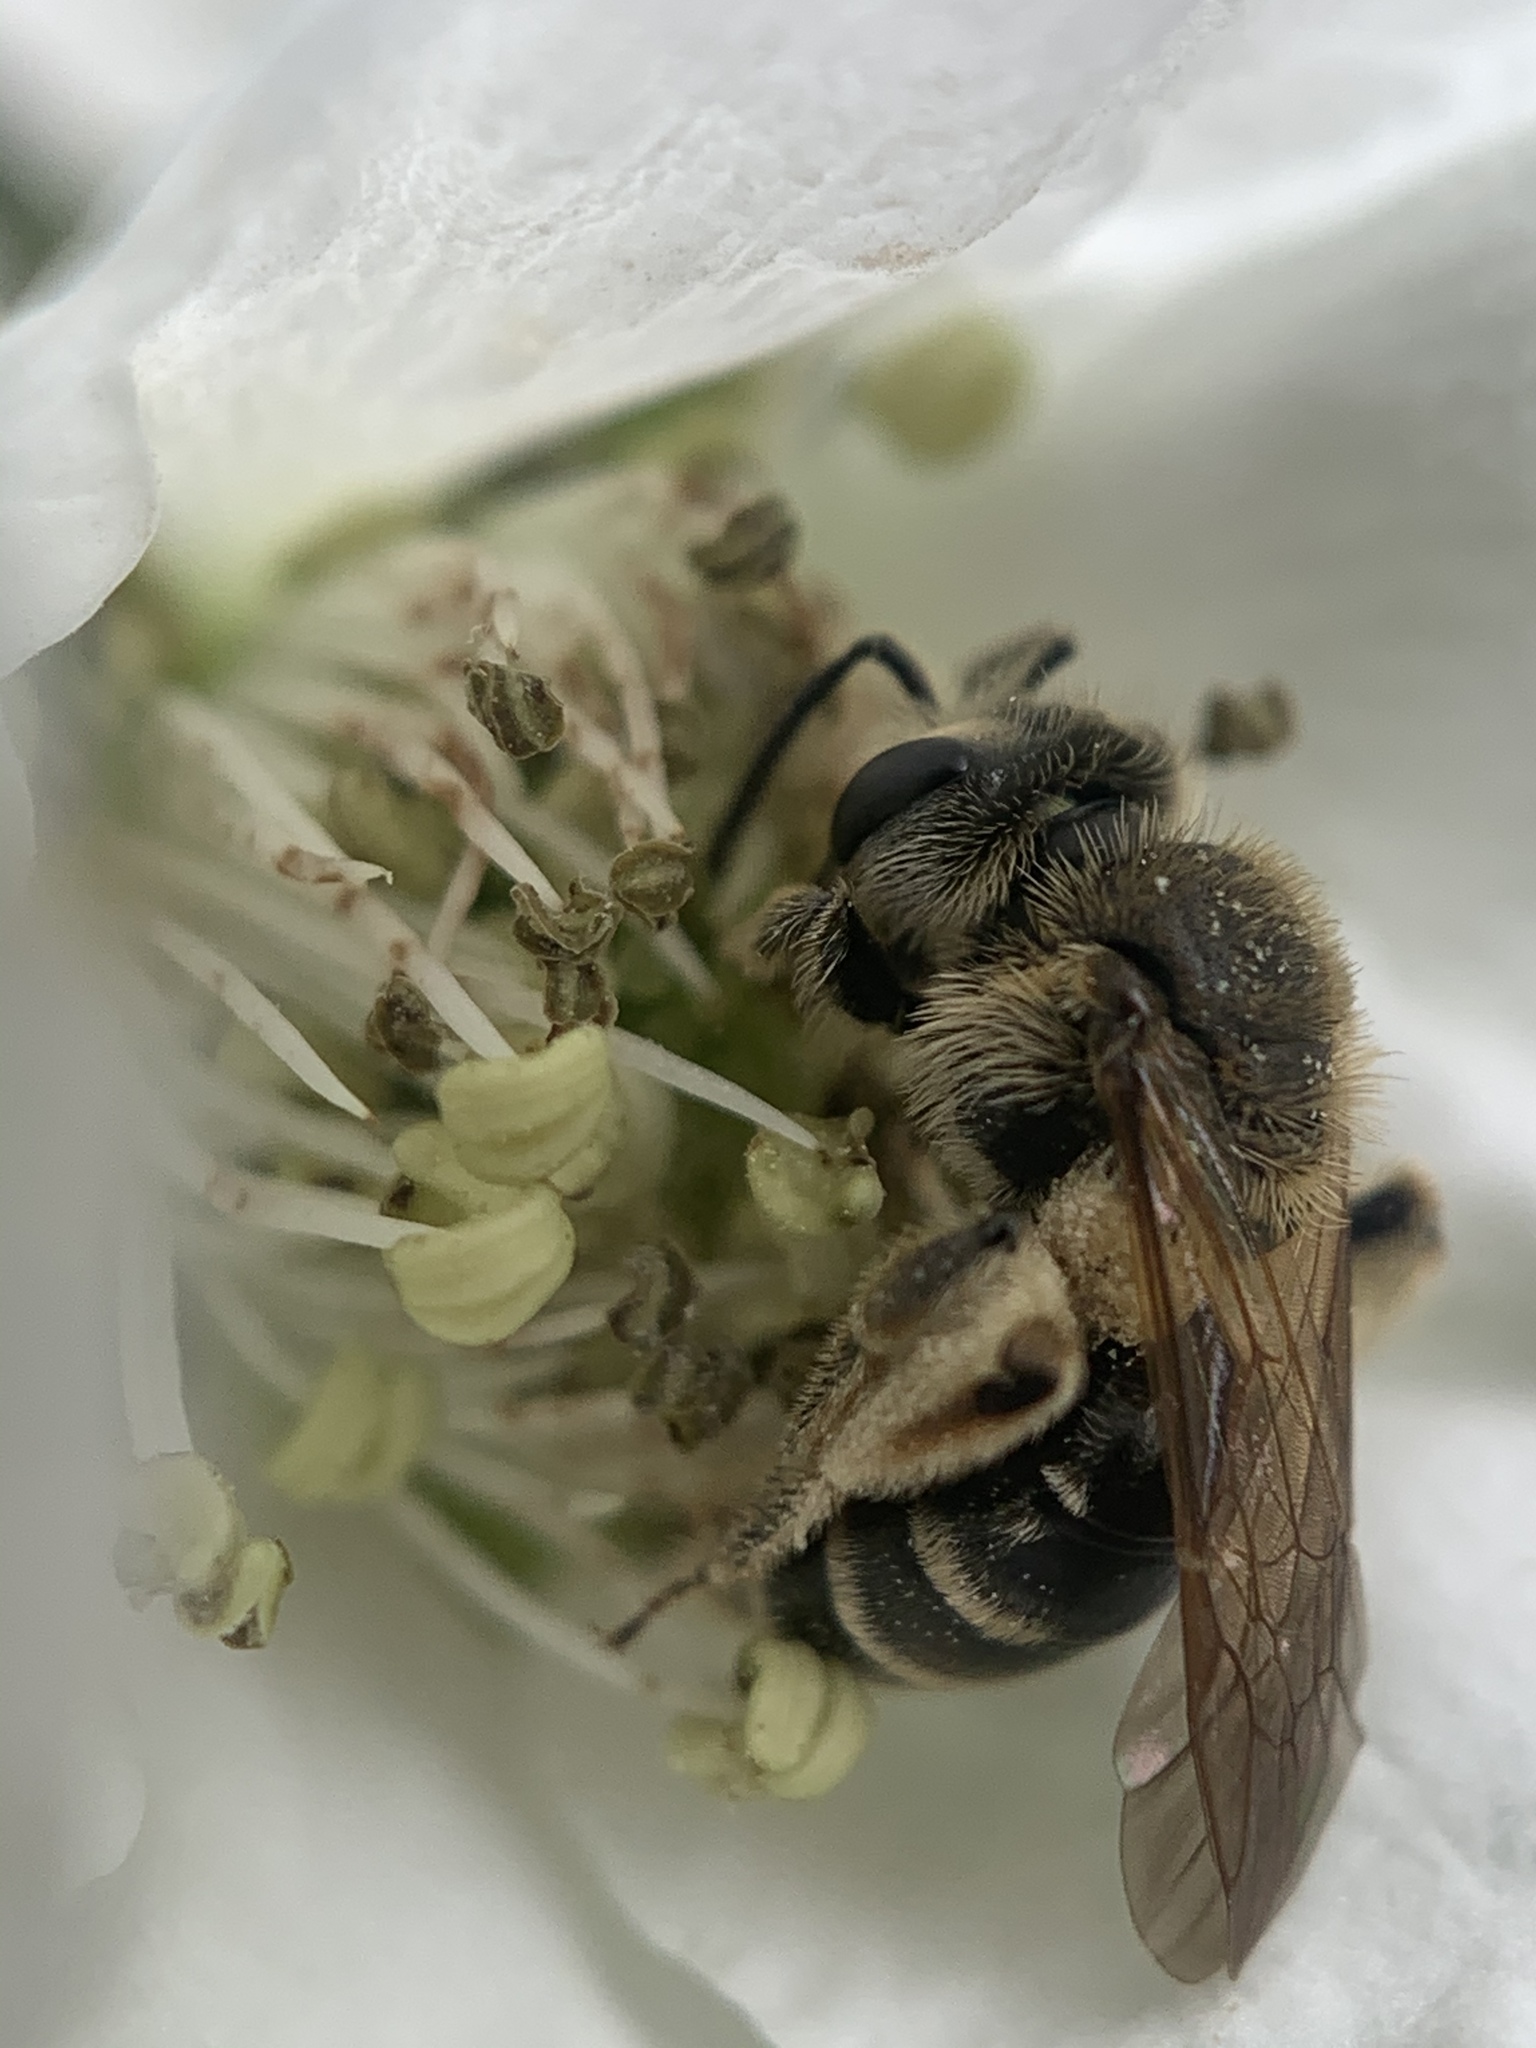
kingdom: Animalia
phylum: Arthropoda
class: Insecta
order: Hymenoptera
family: Andrenidae
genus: Andrena
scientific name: Andrena
